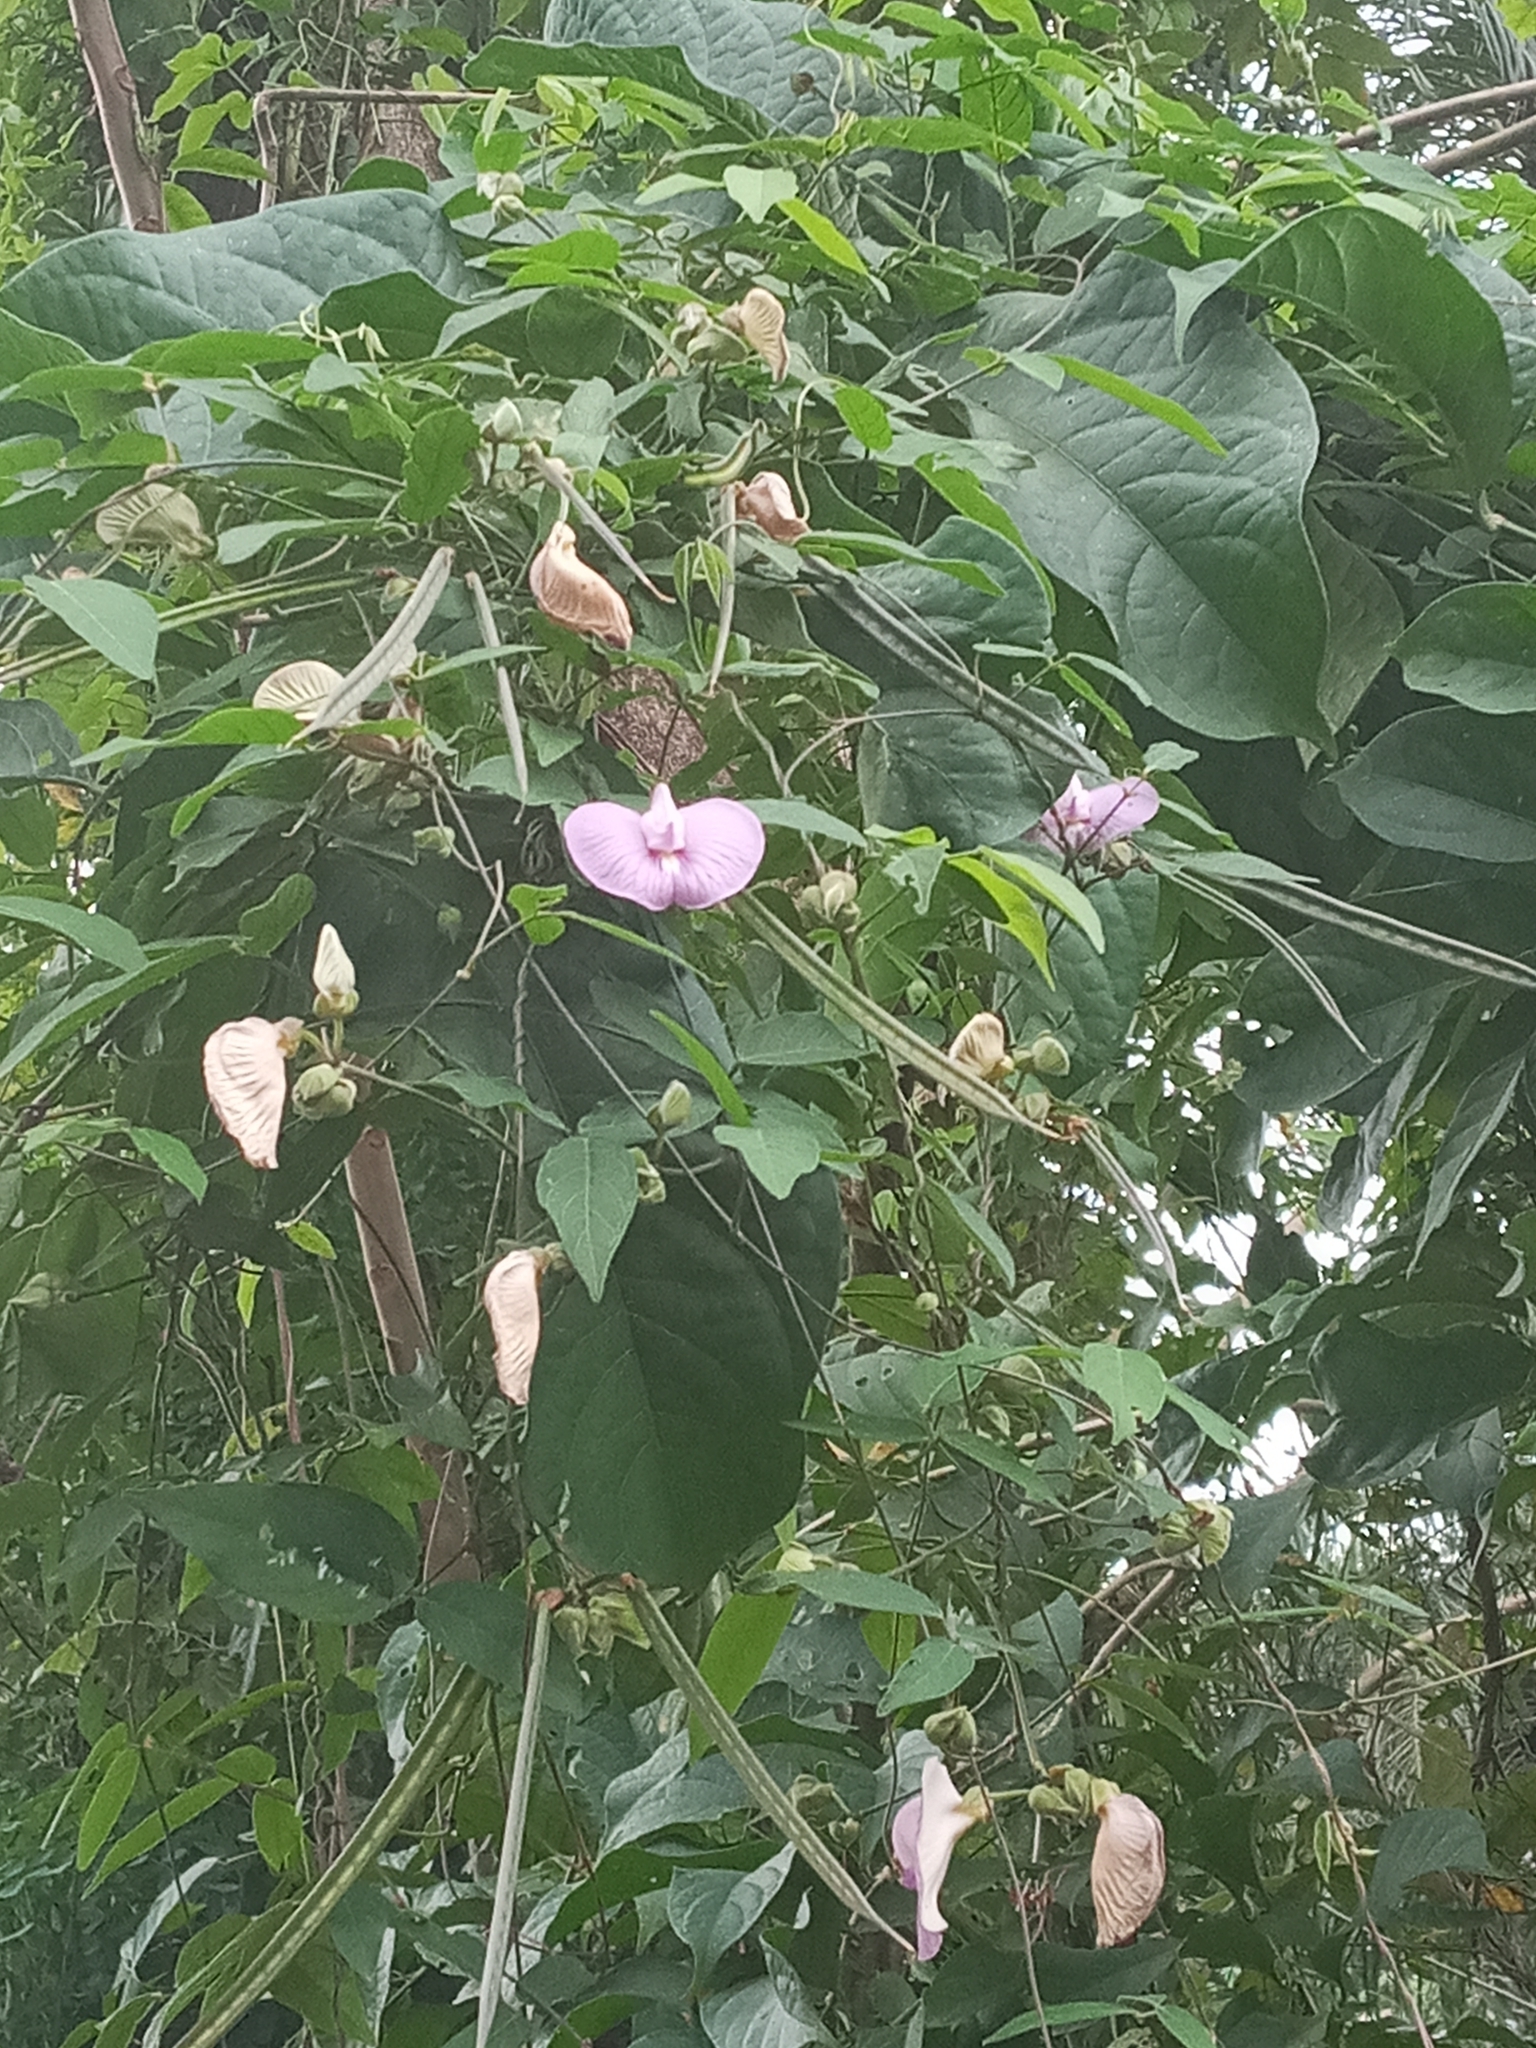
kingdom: Plantae
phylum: Tracheophyta
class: Magnoliopsida
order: Fabales
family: Fabaceae
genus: Centrosema
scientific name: Centrosema virginianum
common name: Butterfly-pea
